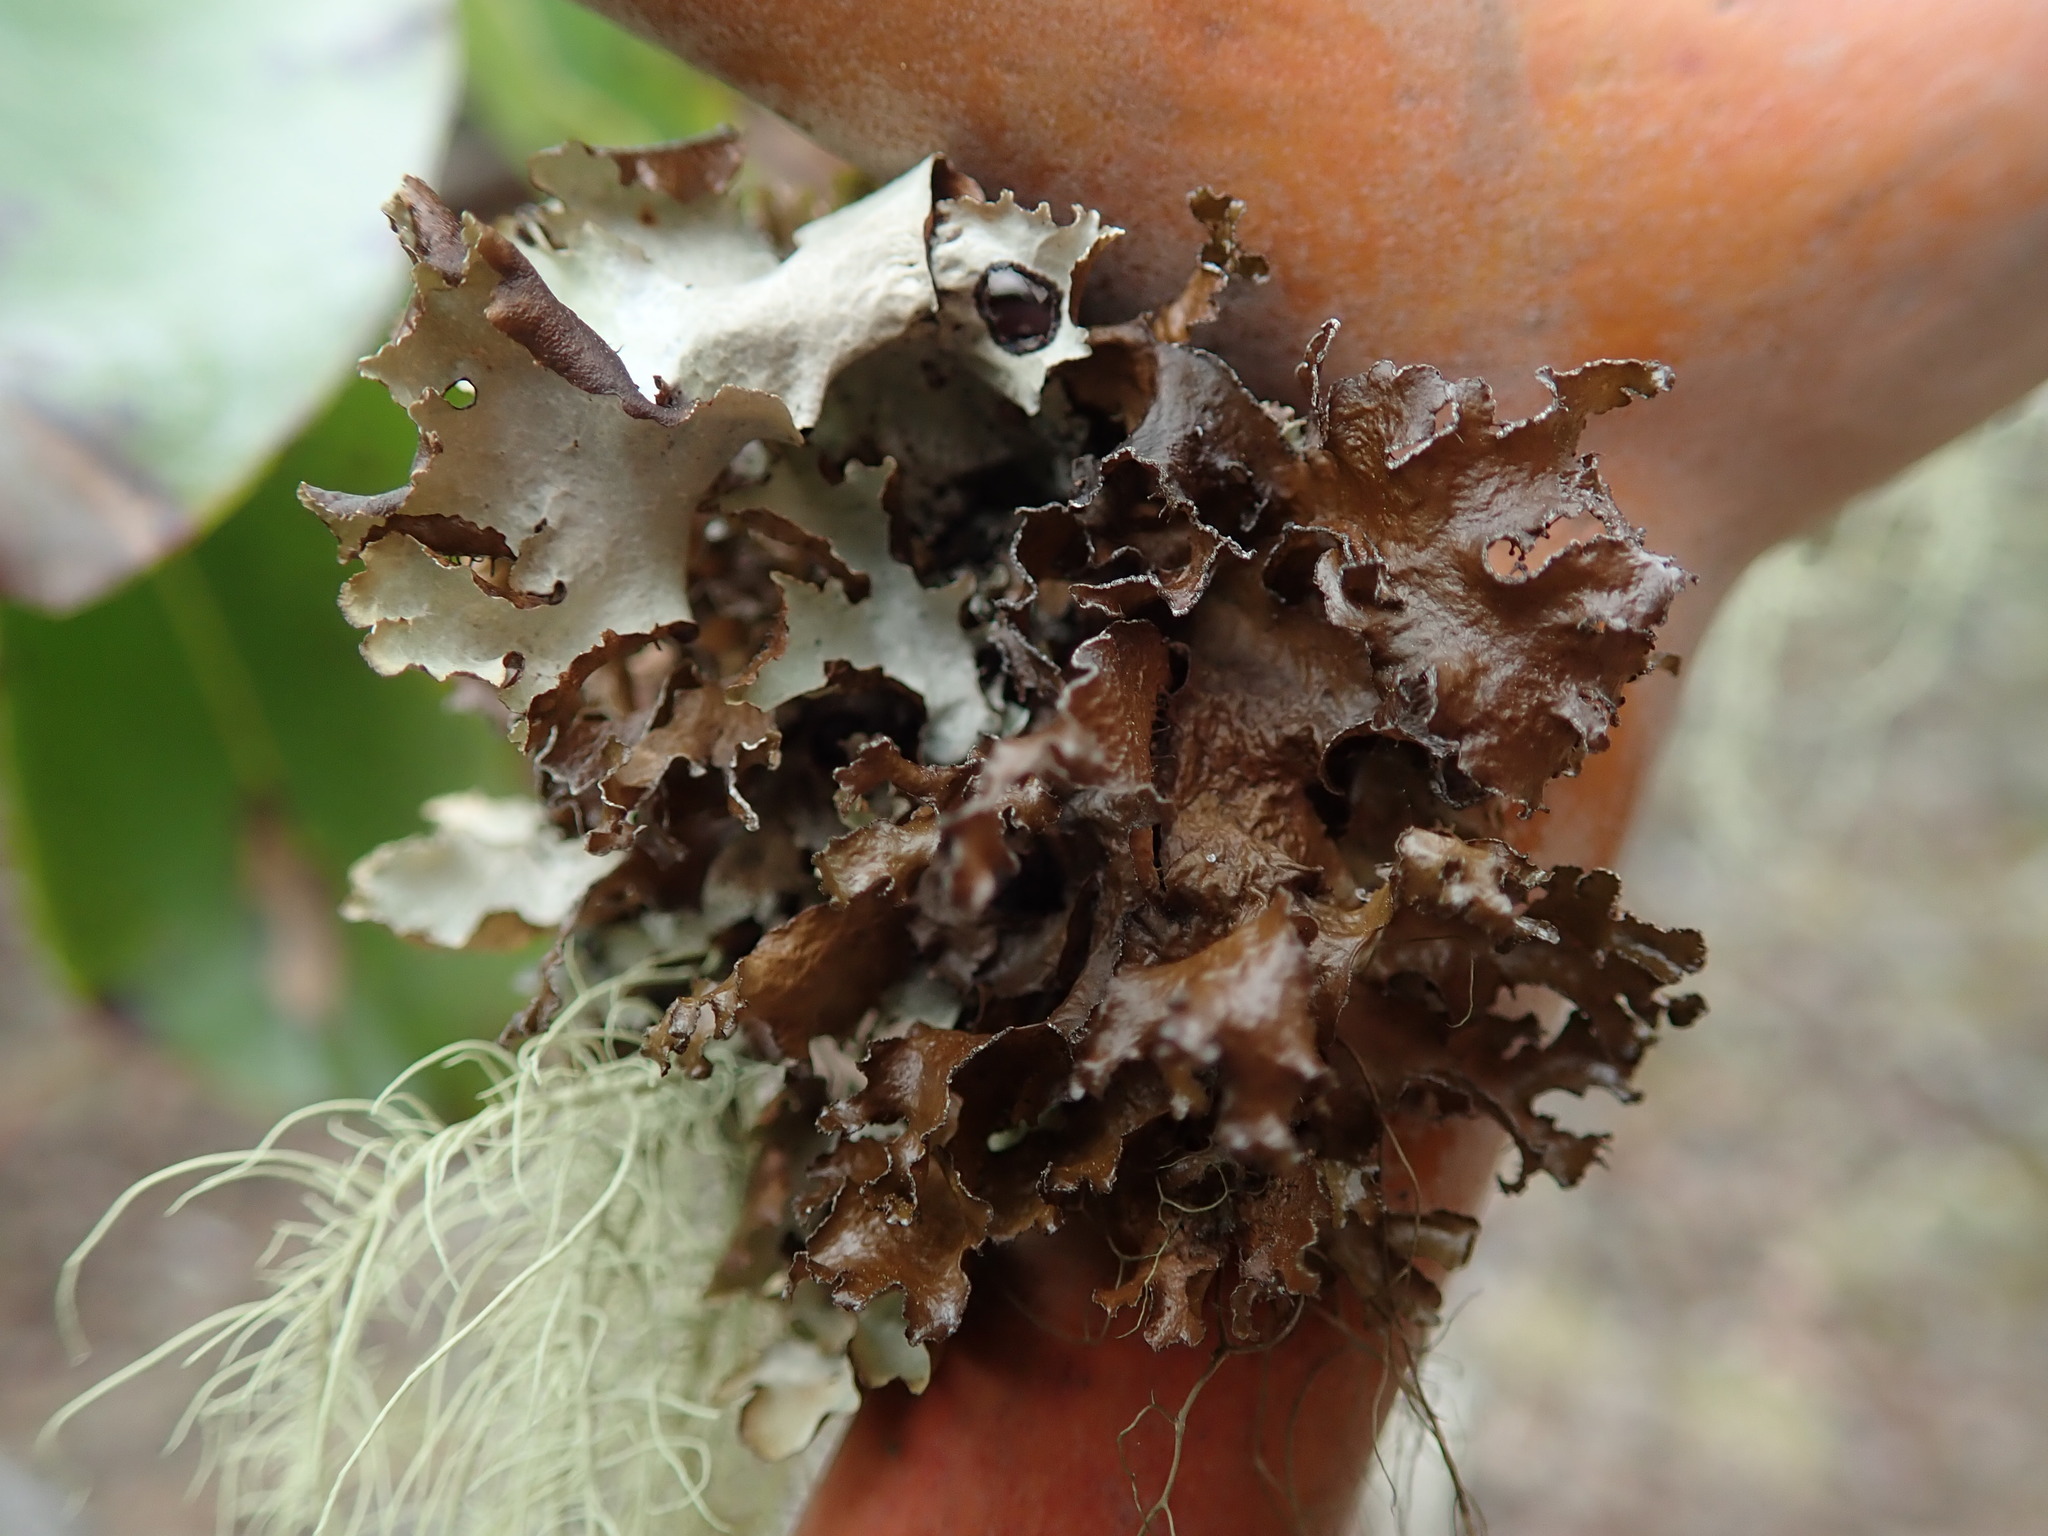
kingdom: Fungi
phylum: Ascomycota
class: Lecanoromycetes
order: Lecanorales
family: Parmeliaceae
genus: Platismatia
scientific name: Platismatia glauca
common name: Varied rag lichen
